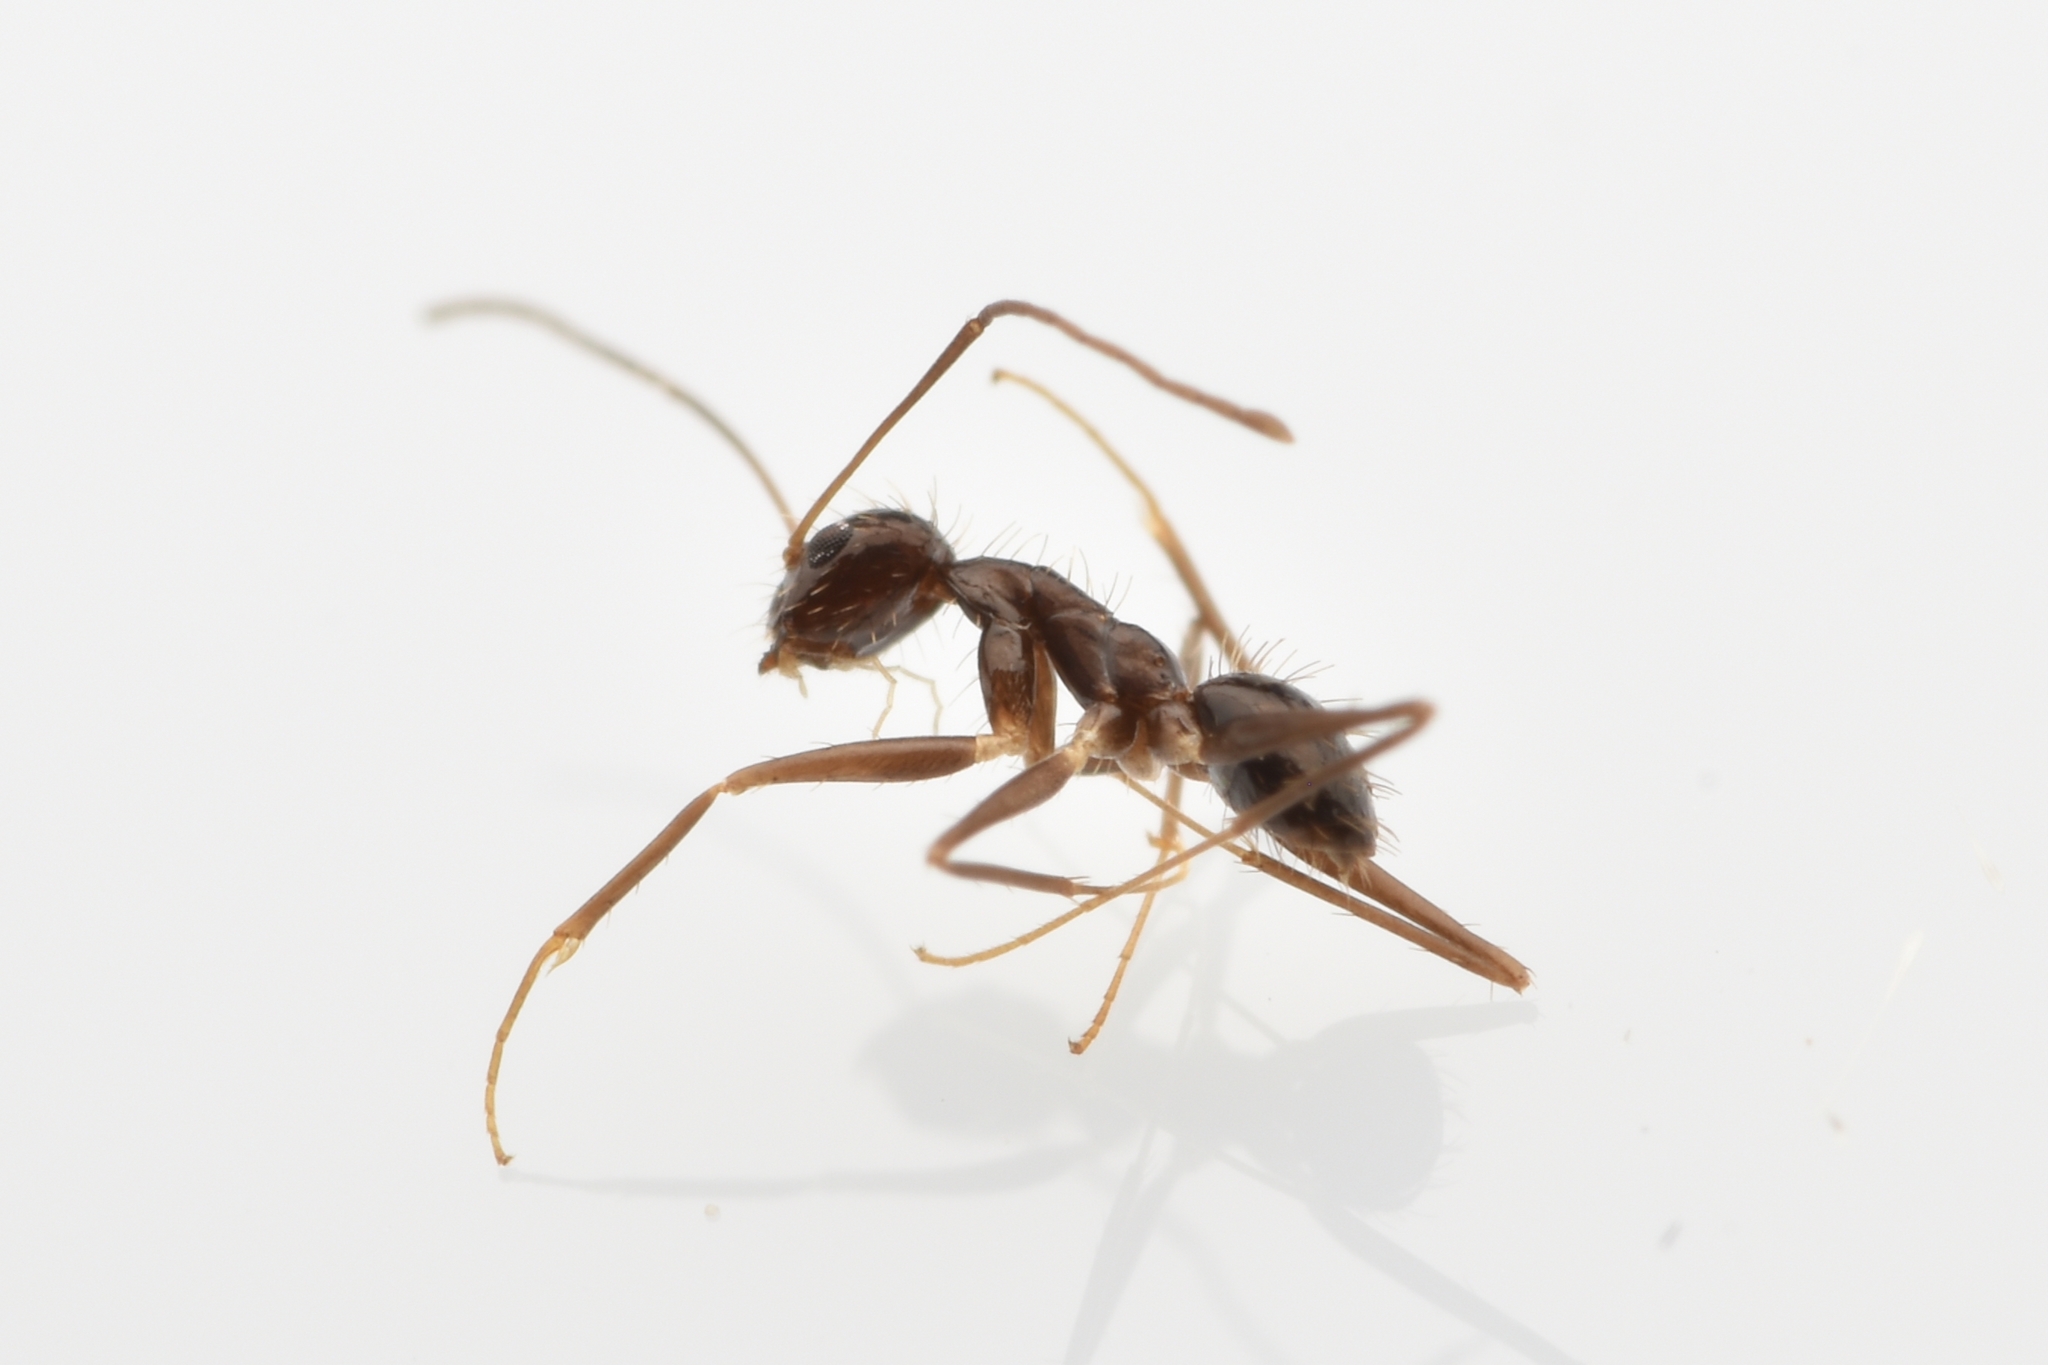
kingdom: Animalia
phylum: Arthropoda
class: Insecta
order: Hymenoptera
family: Formicidae
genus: Paratrechina
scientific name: Paratrechina longicornis
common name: Longhorned crazy ant
